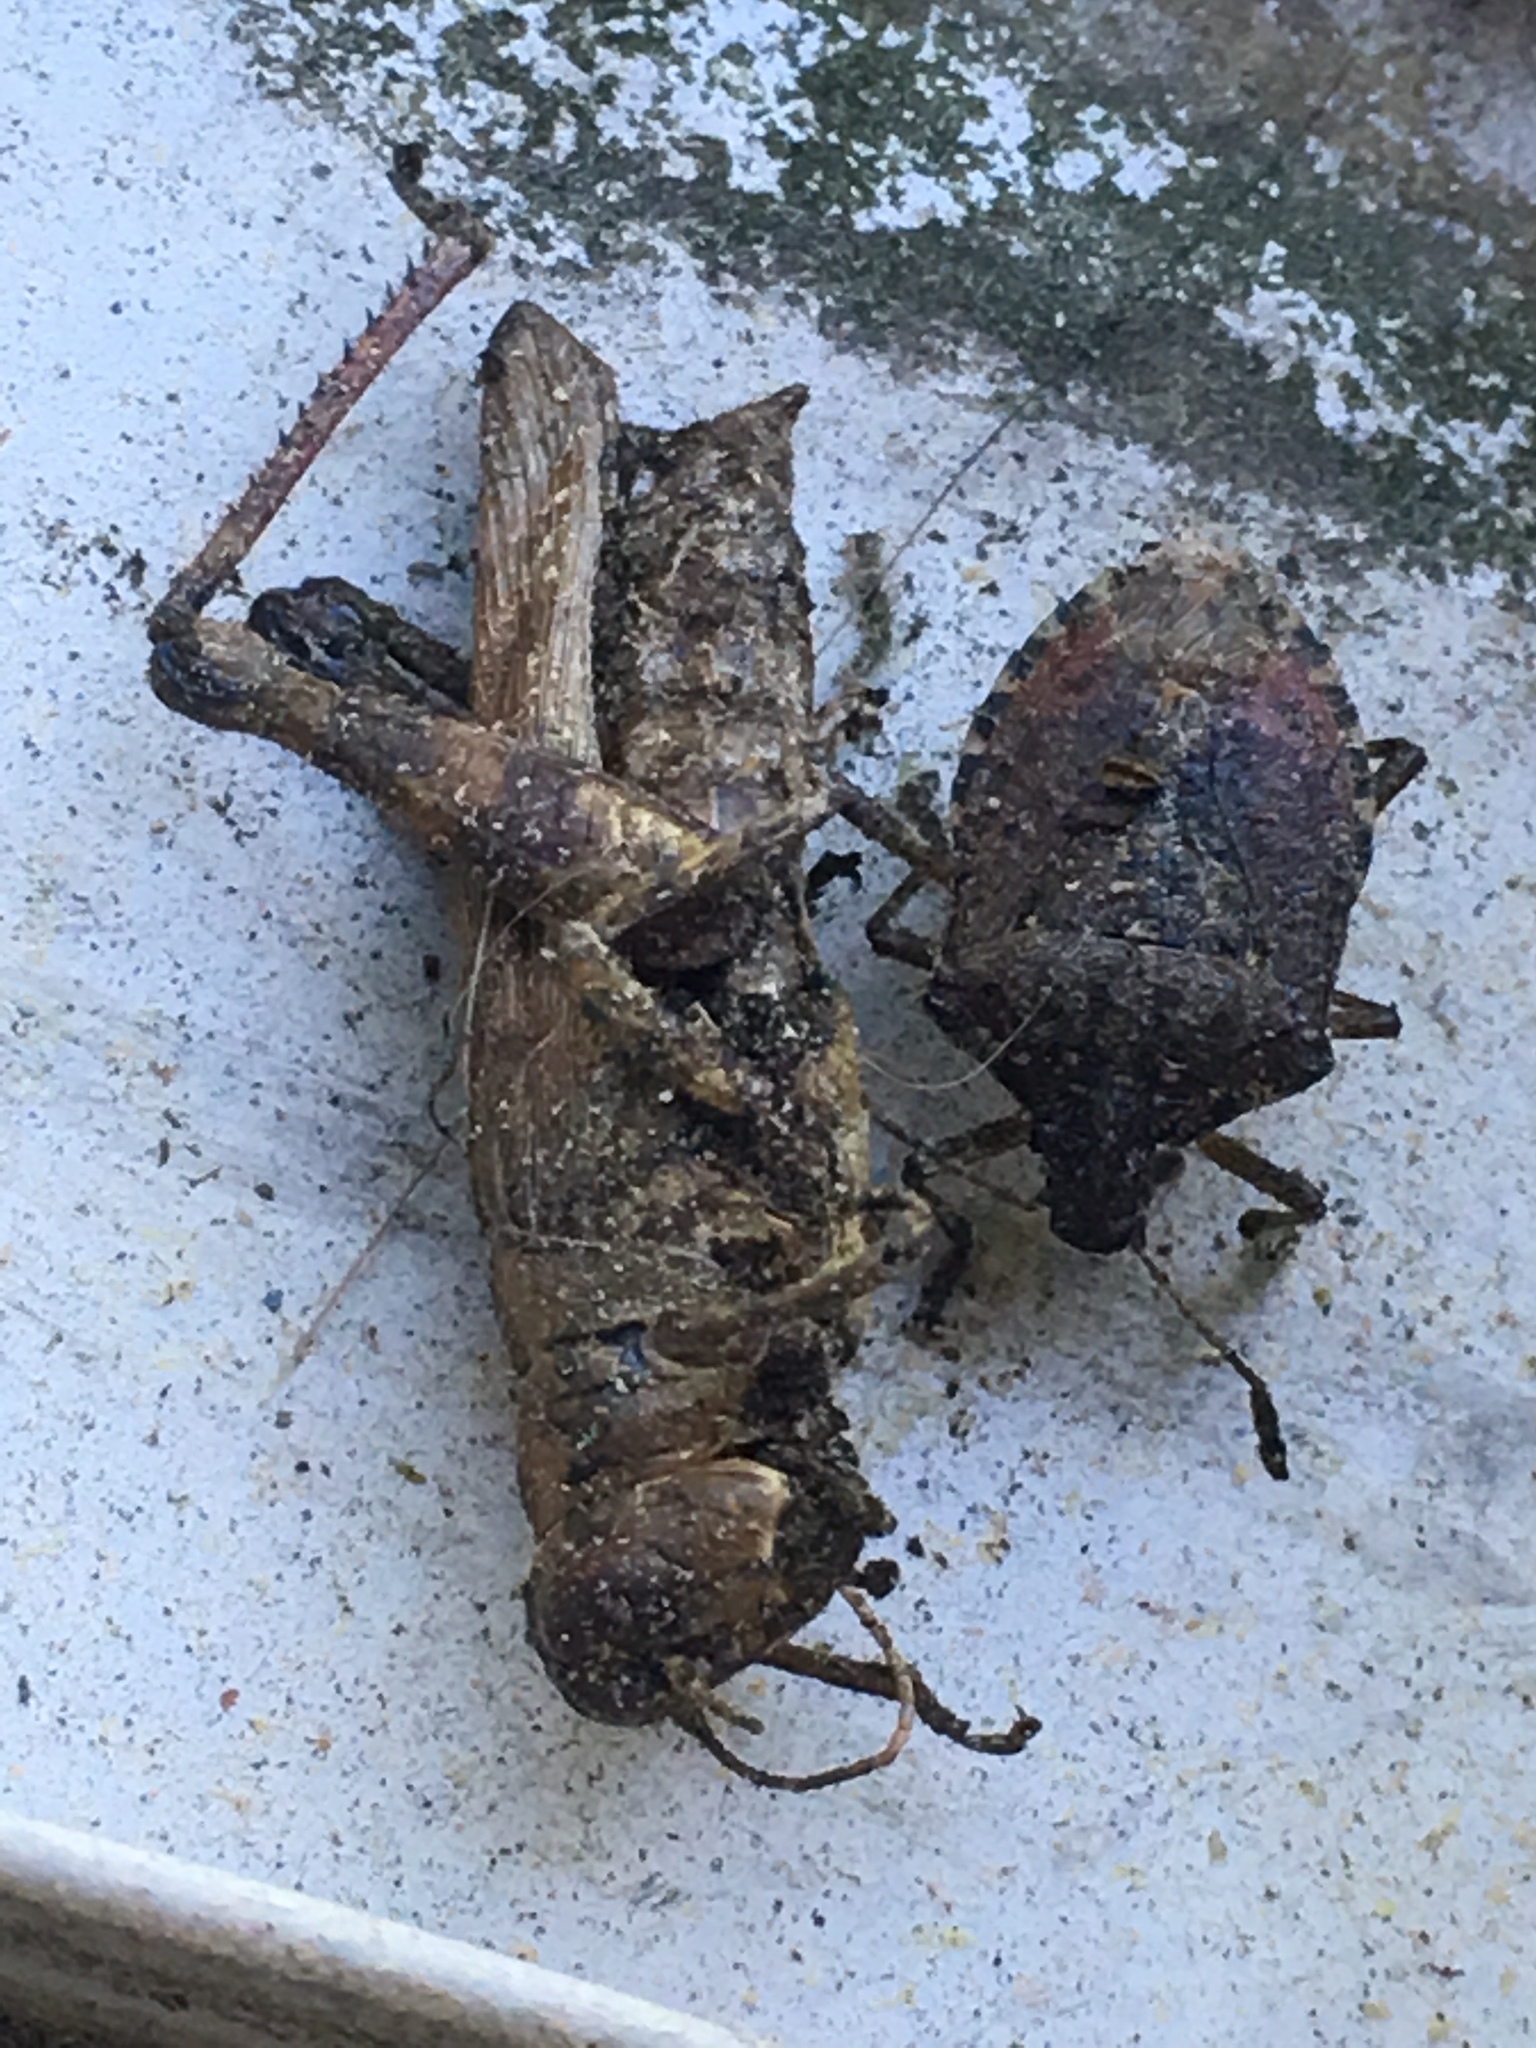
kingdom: Animalia
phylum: Arthropoda
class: Insecta
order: Hemiptera
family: Pentatomidae
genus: Halyomorpha
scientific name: Halyomorpha halys
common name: Brown marmorated stink bug
